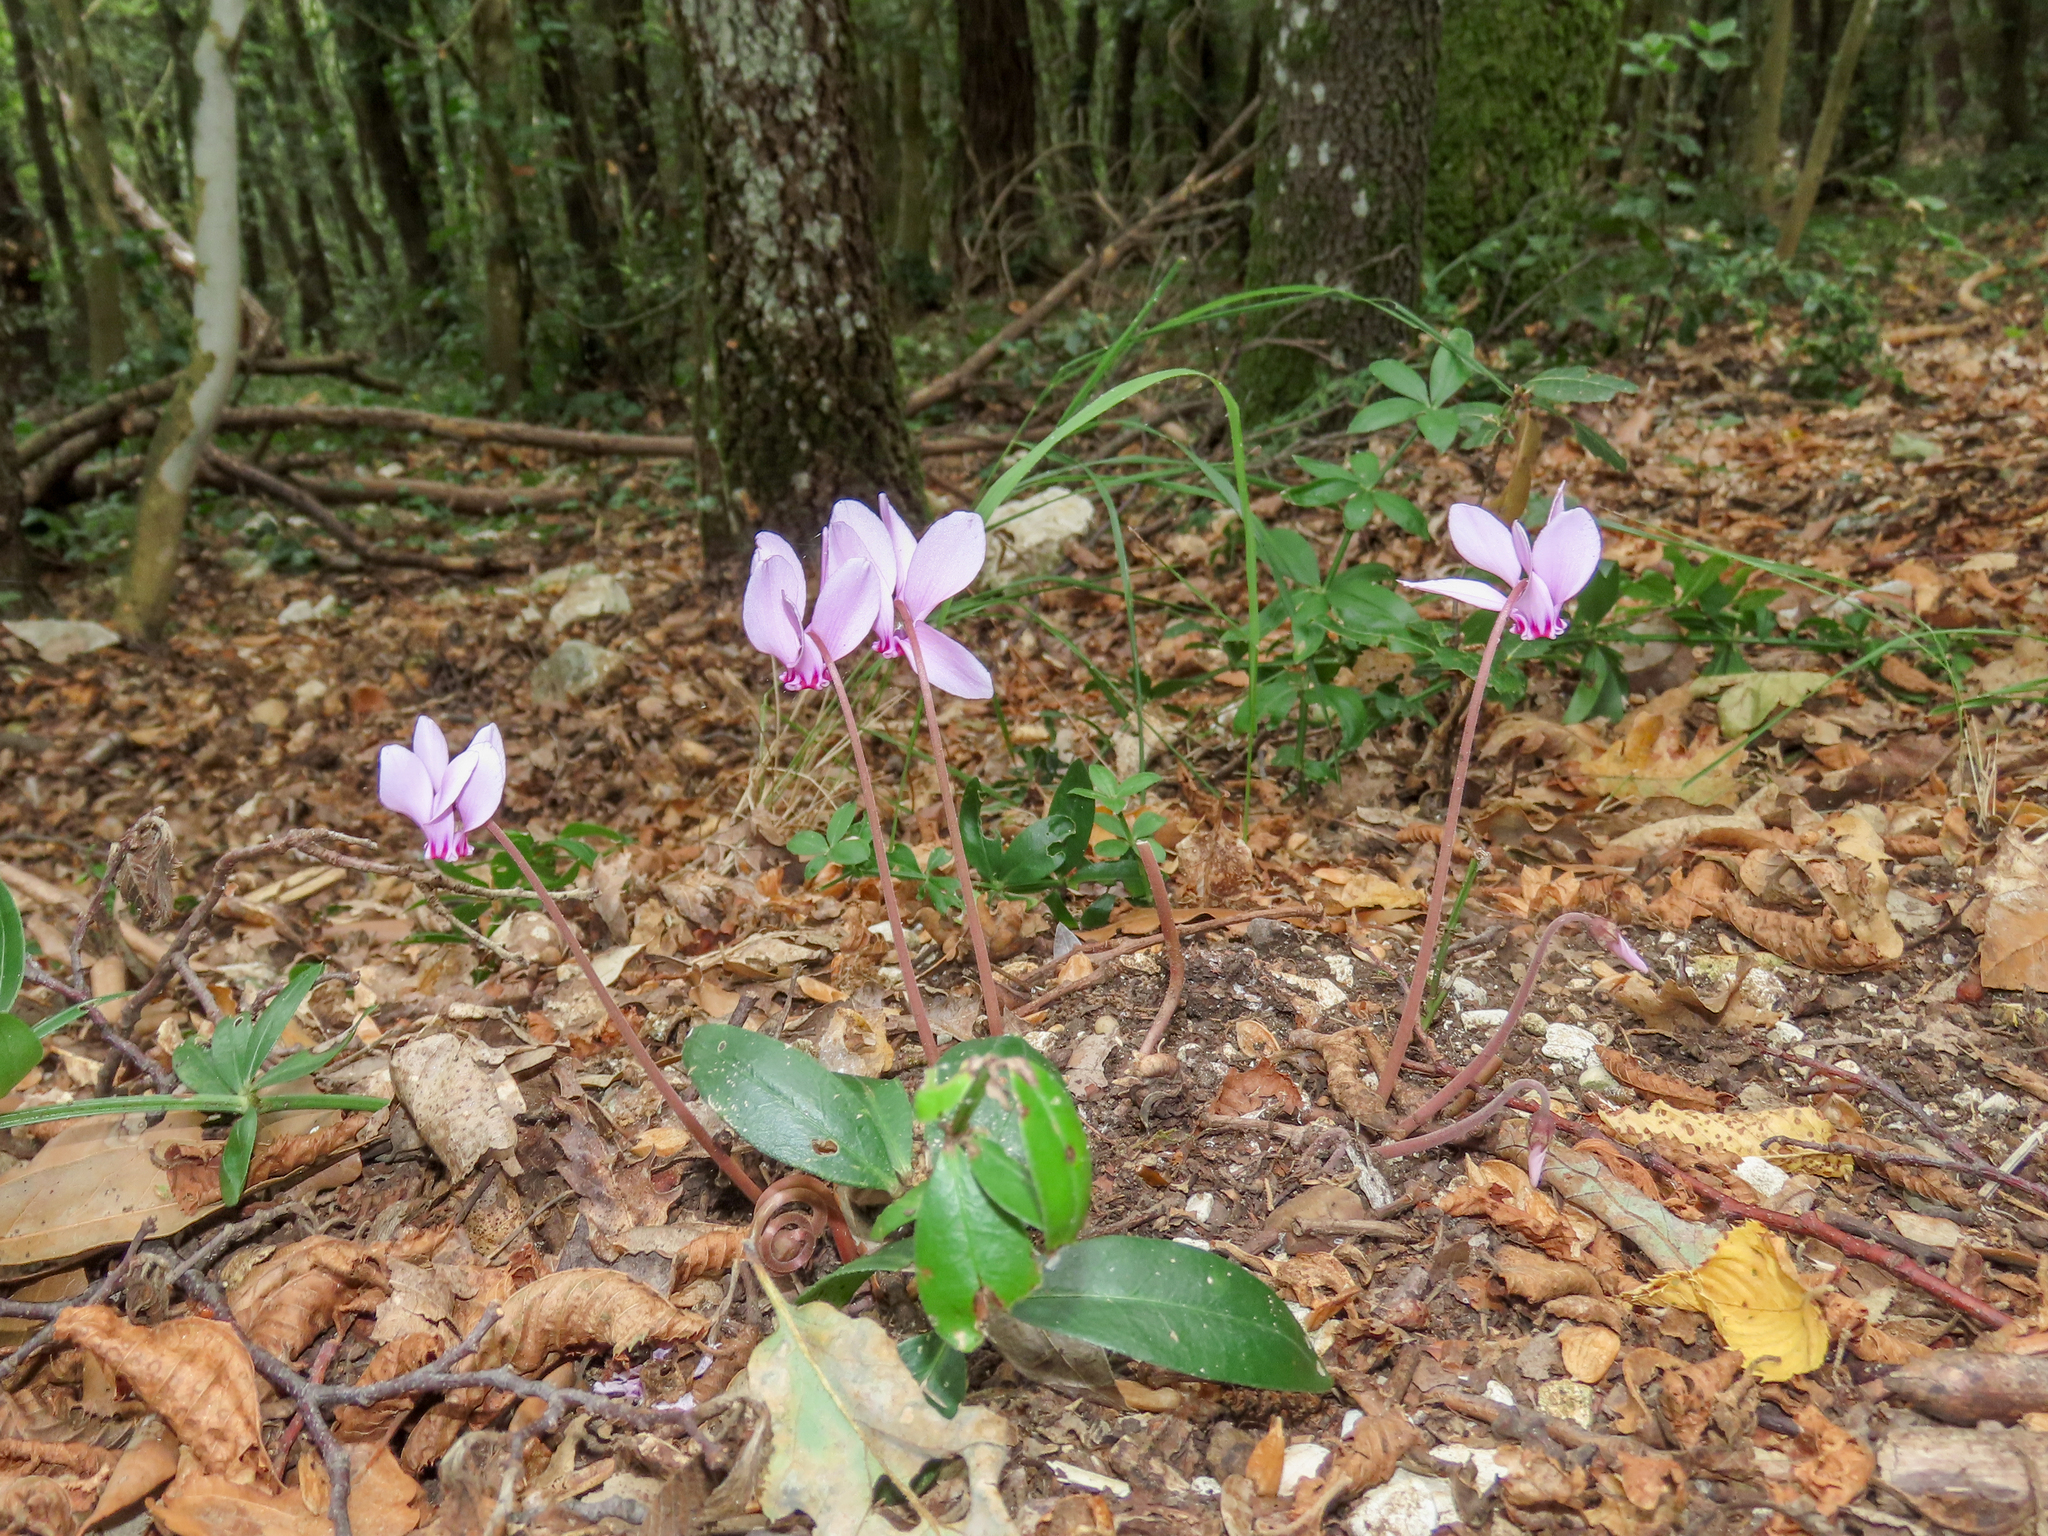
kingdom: Plantae
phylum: Tracheophyta
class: Magnoliopsida
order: Ericales
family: Primulaceae
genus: Cyclamen
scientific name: Cyclamen hederifolium
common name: Sowbread
